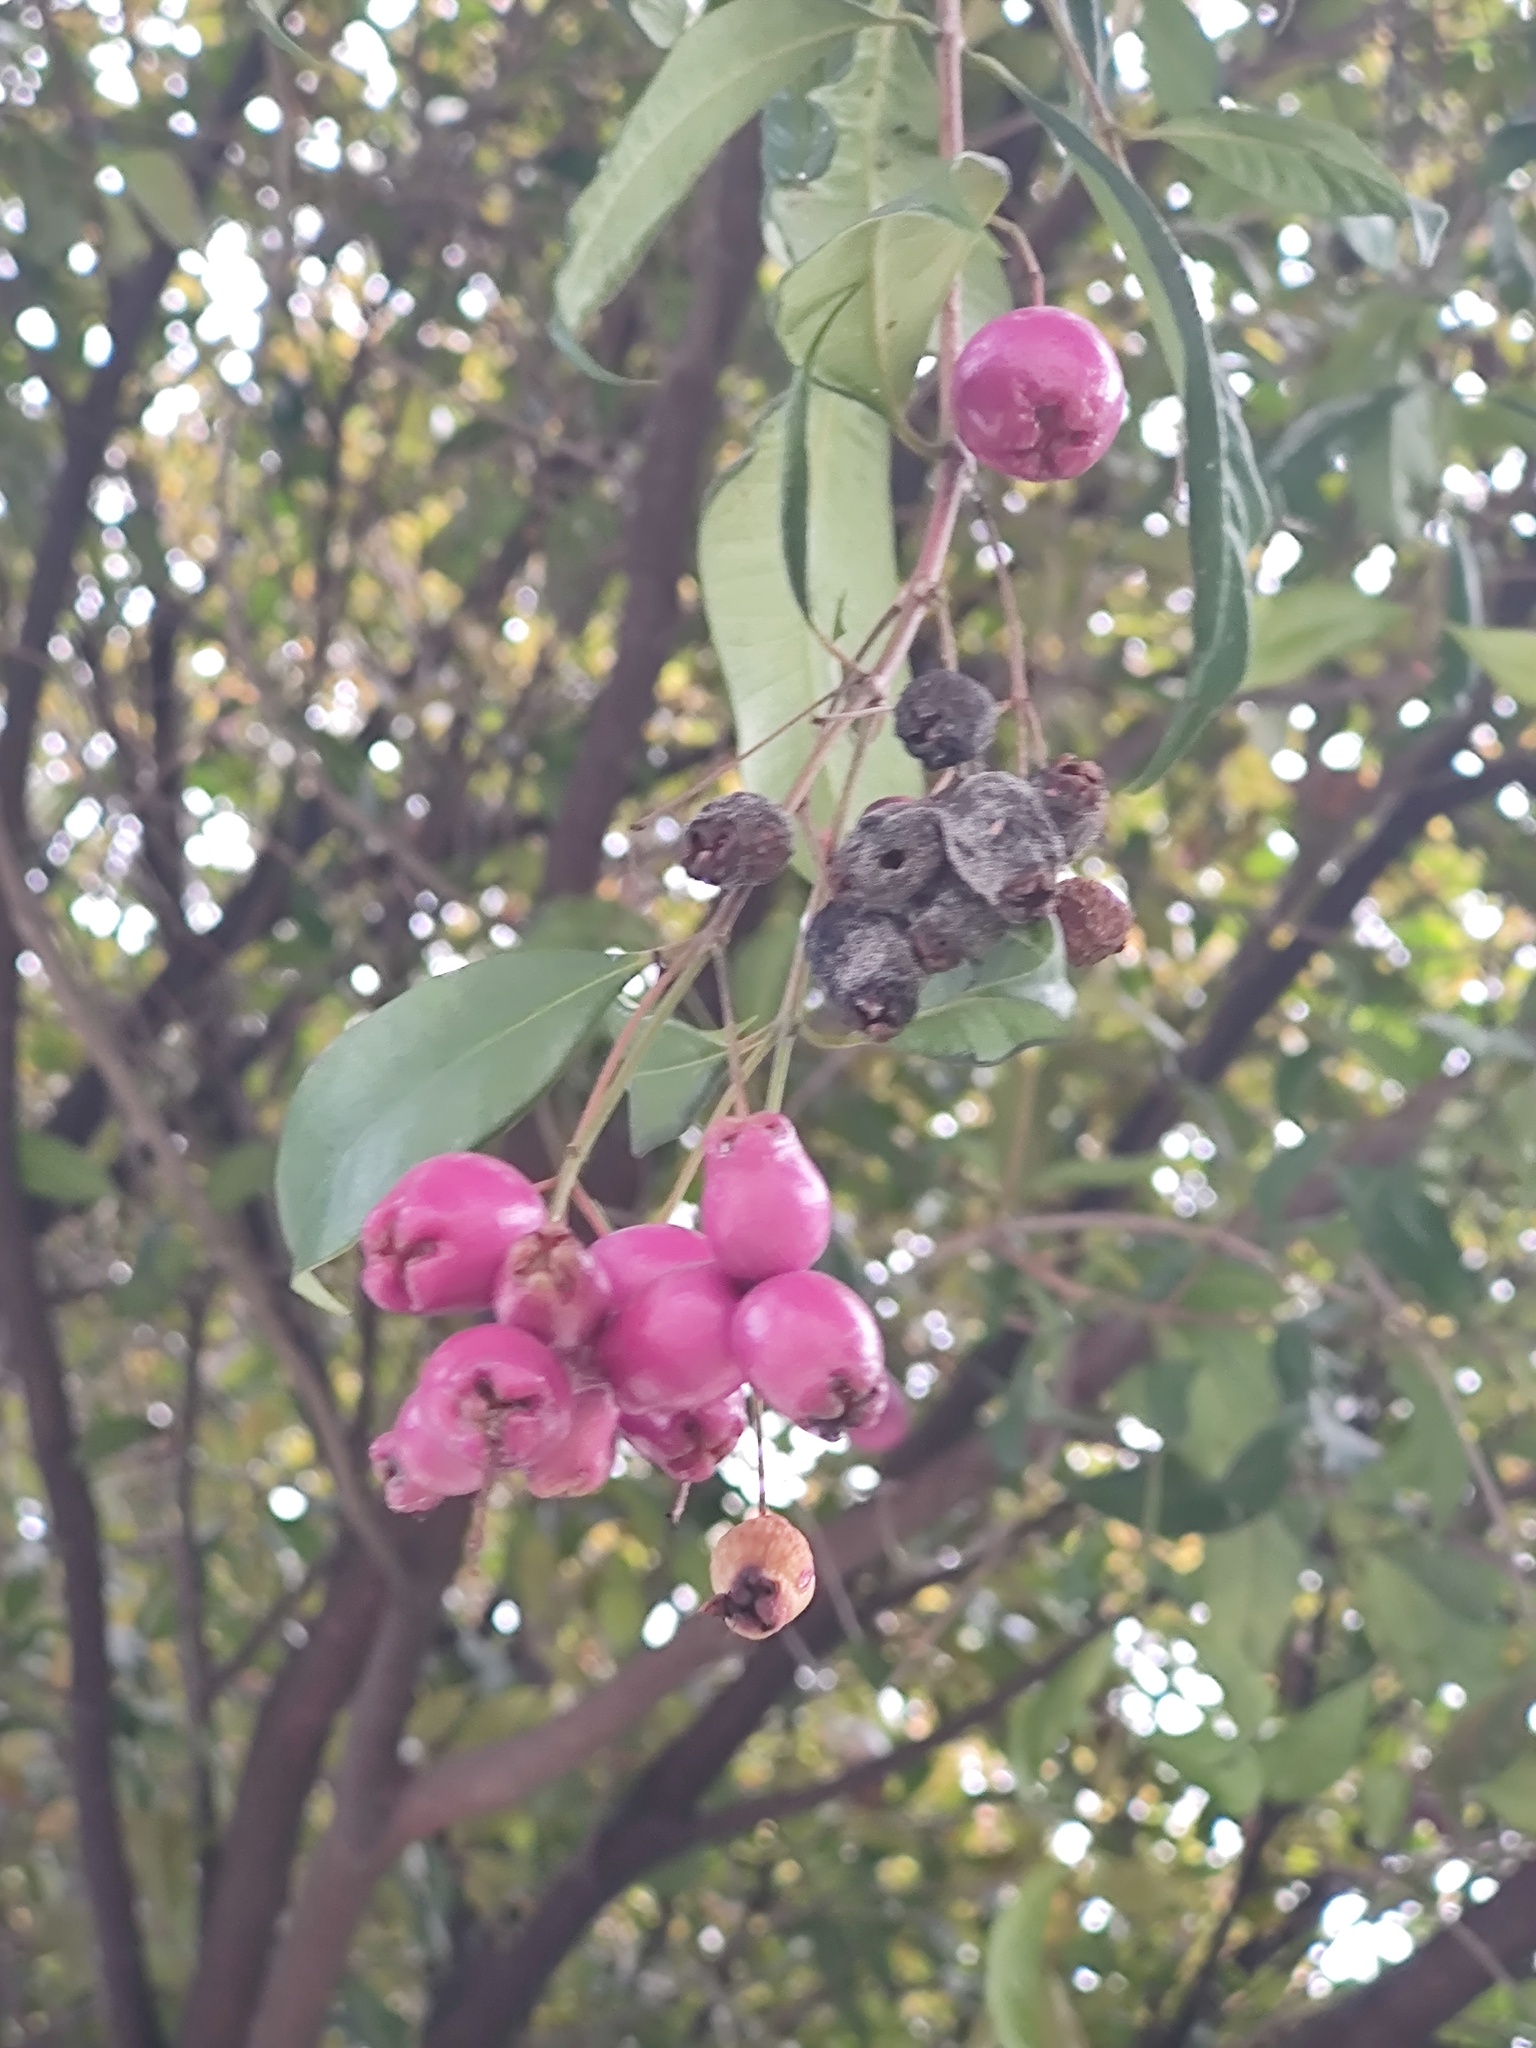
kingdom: Plantae
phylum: Tracheophyta
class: Magnoliopsida
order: Myrtales
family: Myrtaceae
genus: Syzygium
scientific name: Syzygium paniculatum
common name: Magenta lilly-pilly
